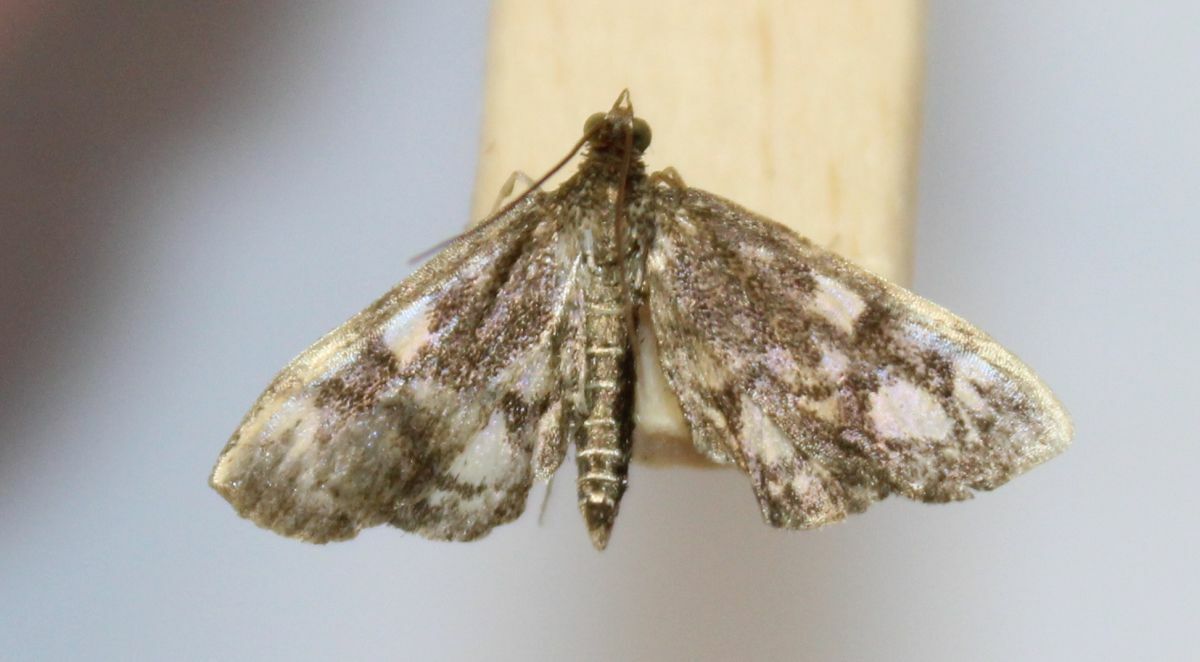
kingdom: Animalia
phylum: Arthropoda
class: Insecta
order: Lepidoptera
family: Crambidae
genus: Anania
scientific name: Anania coronata
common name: Elder pearl
